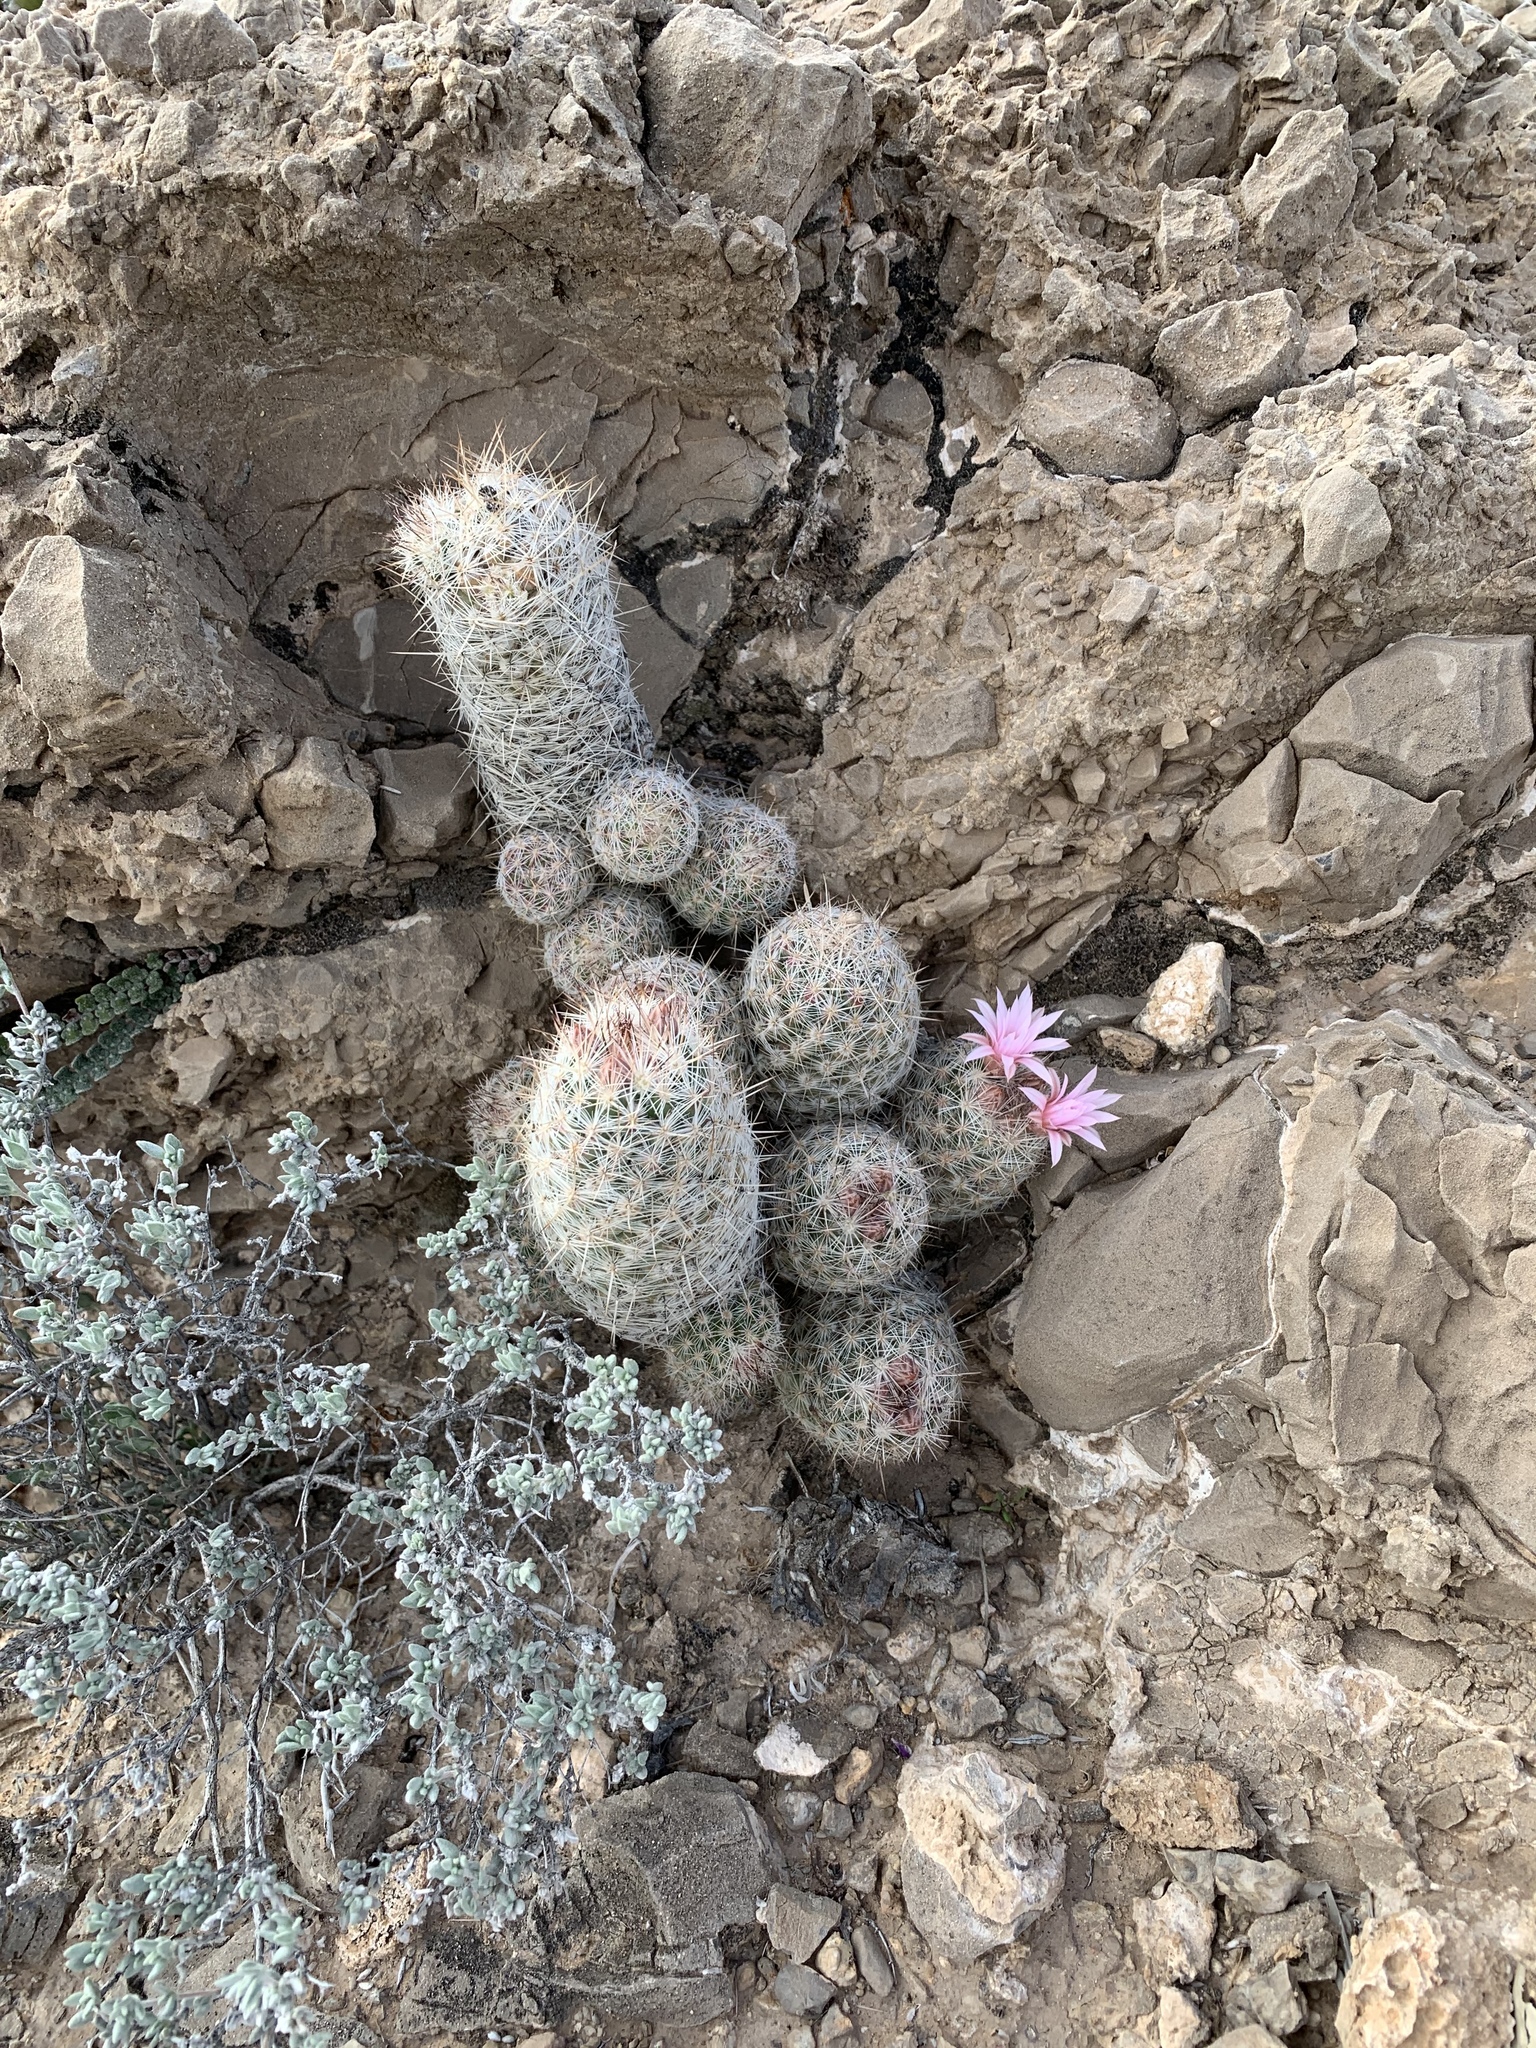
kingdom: Plantae
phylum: Tracheophyta
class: Magnoliopsida
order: Caryophyllales
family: Cactaceae
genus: Pelecyphora
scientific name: Pelecyphora tuberculosa
